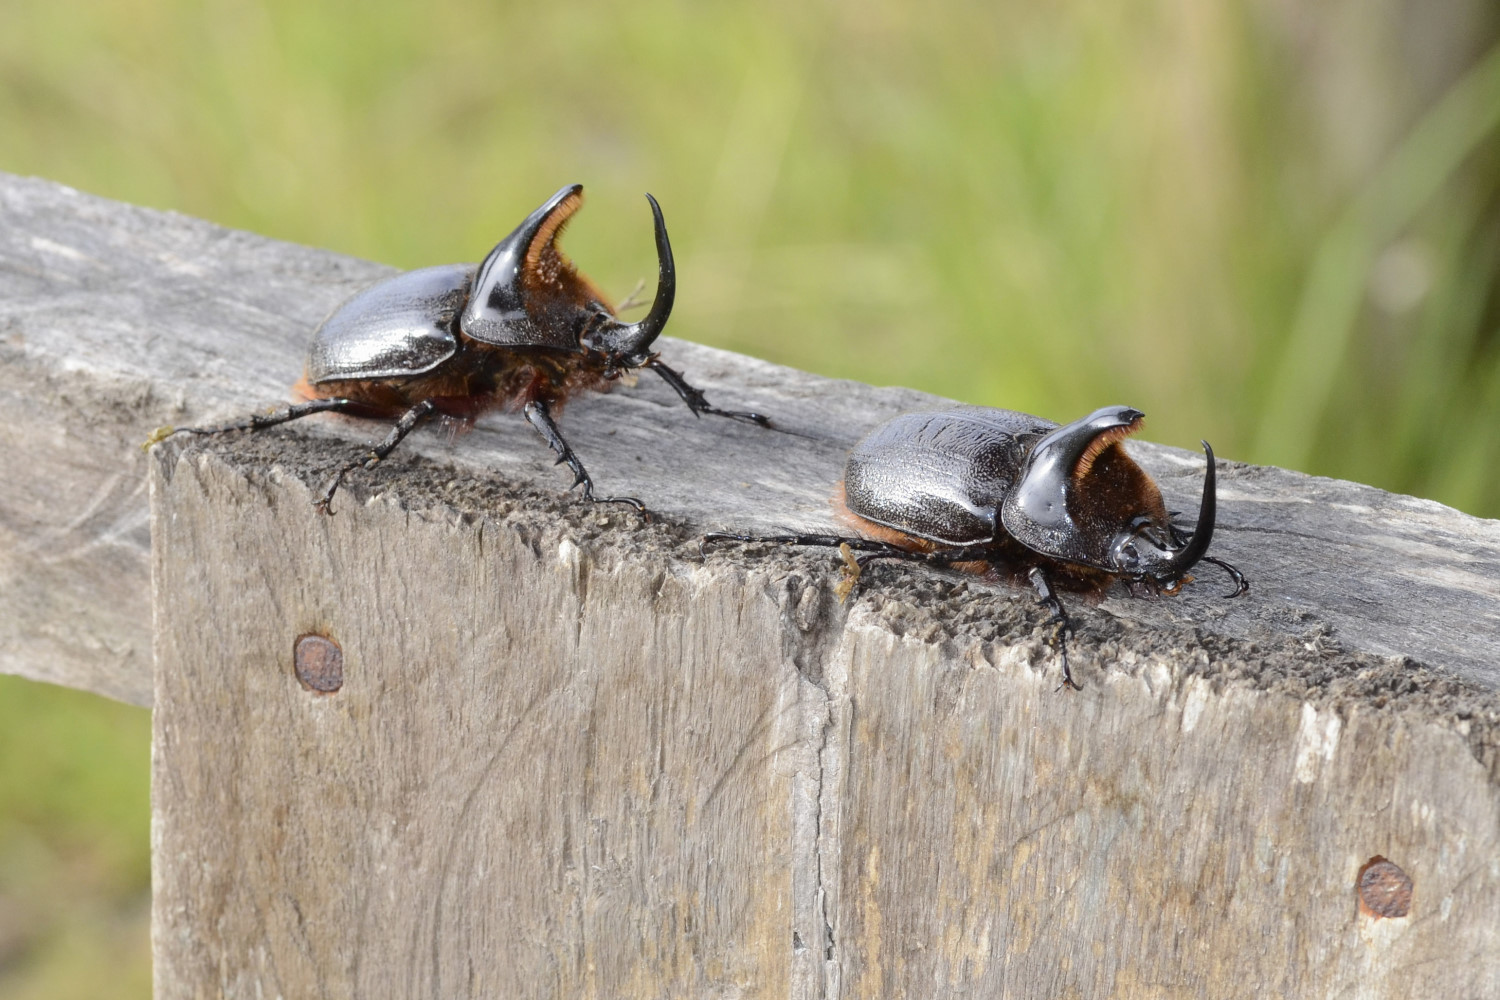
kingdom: Animalia
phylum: Arthropoda
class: Insecta
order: Coleoptera
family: Scarabaeidae
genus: Heterogomphus
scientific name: Heterogomphus schoenherri
